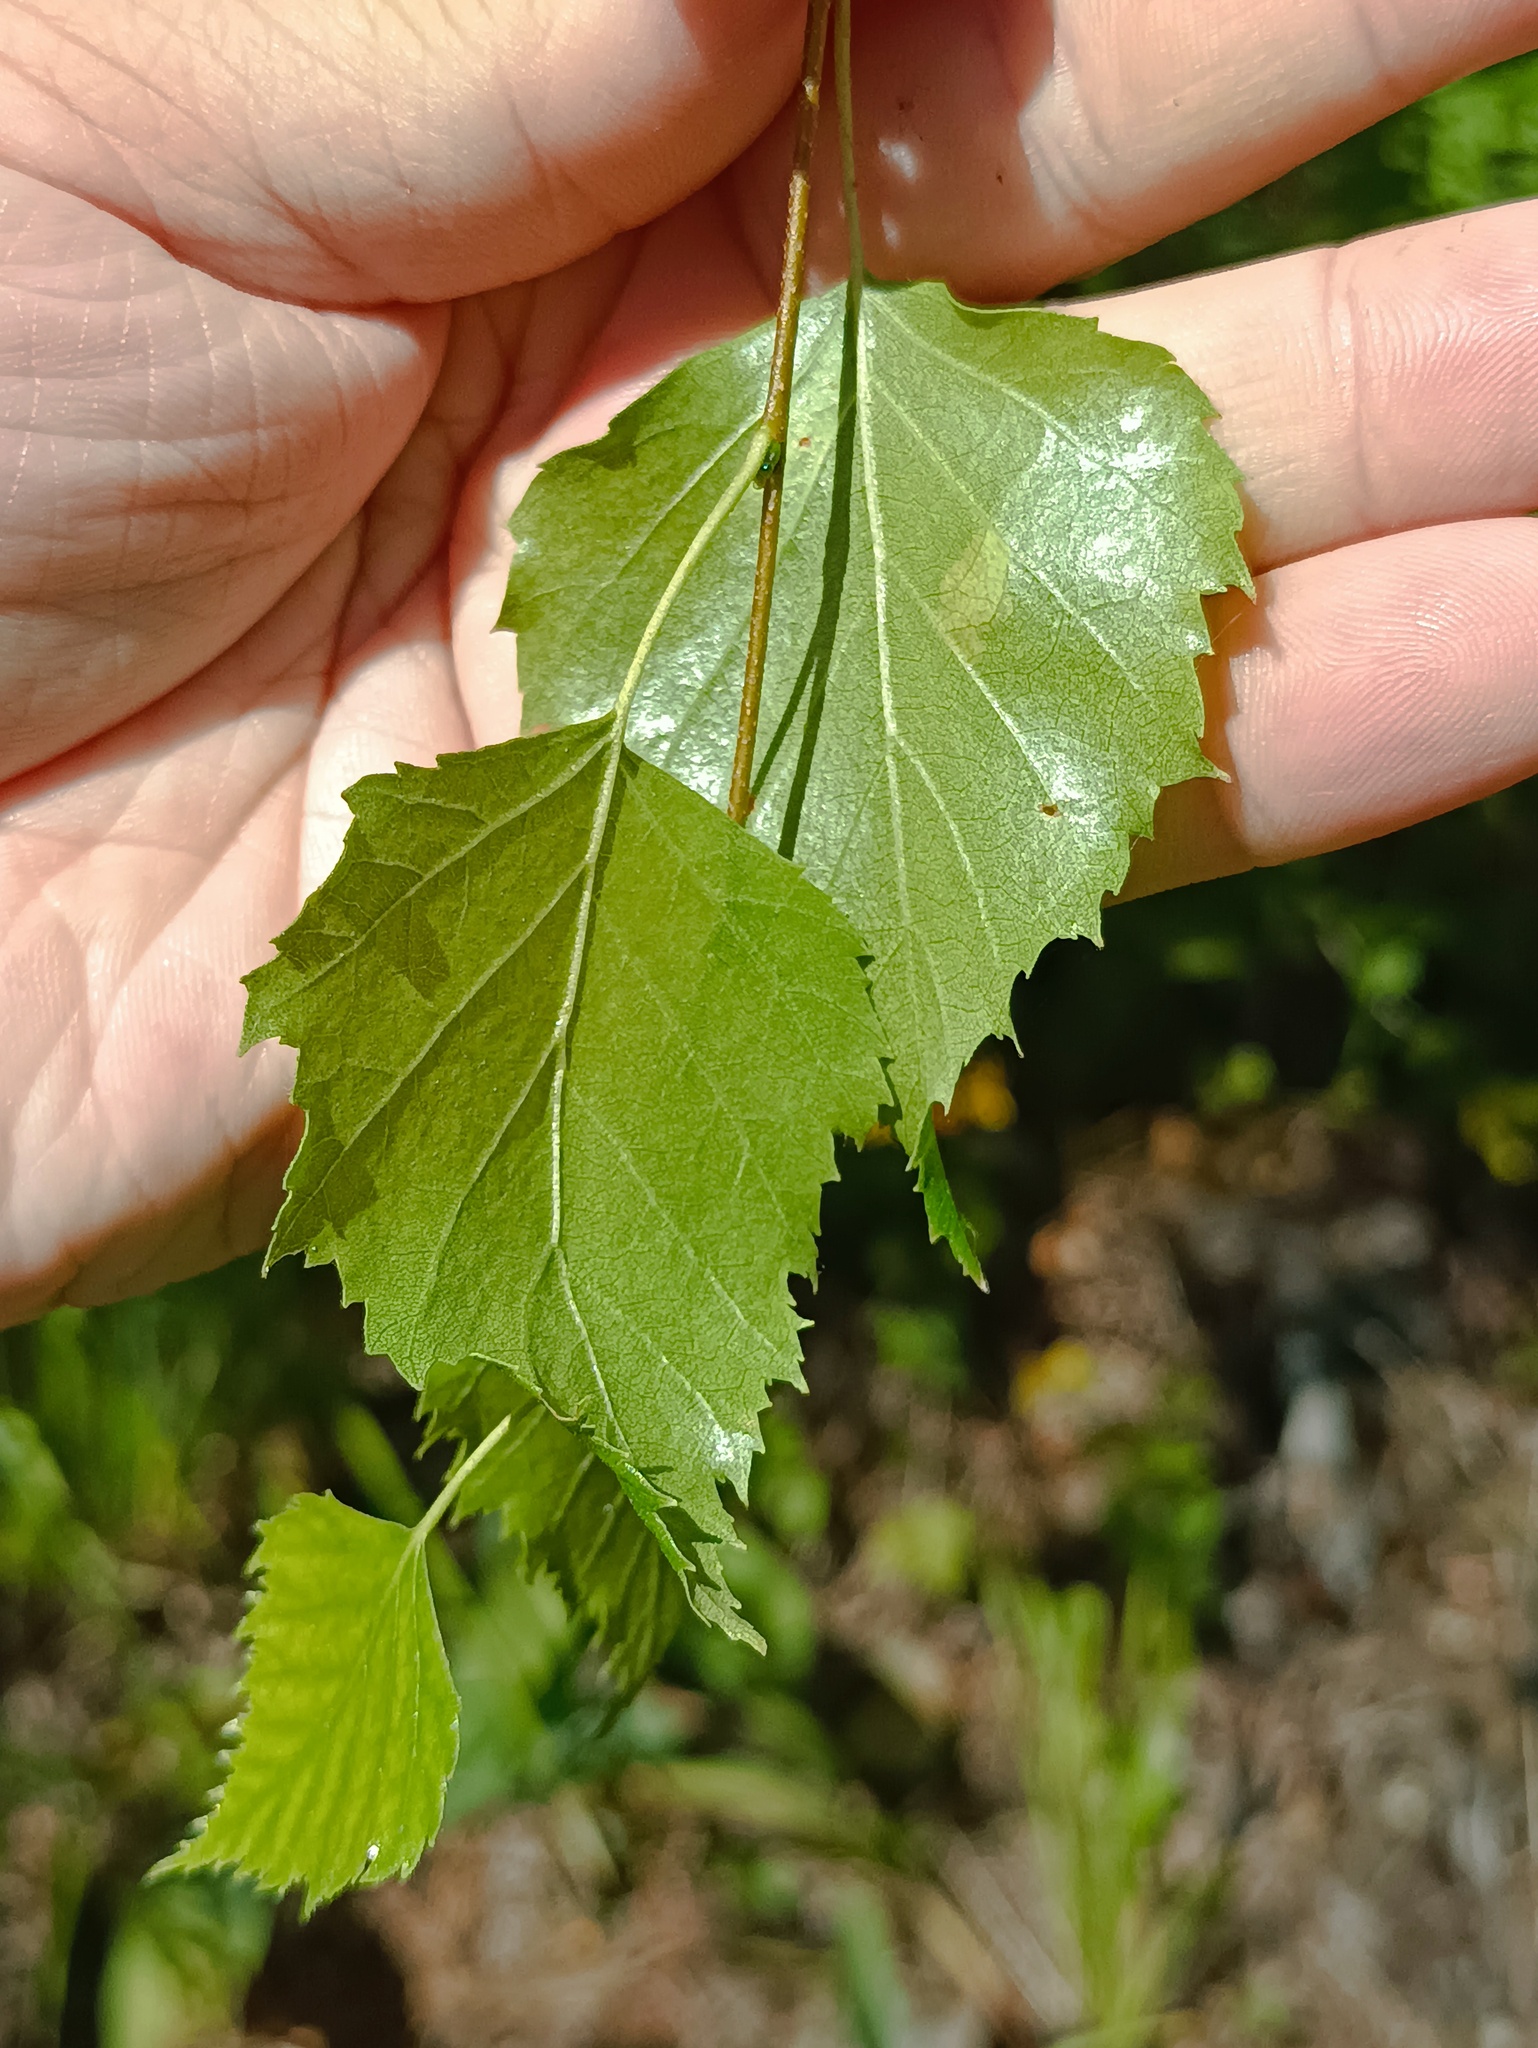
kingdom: Plantae
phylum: Tracheophyta
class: Magnoliopsida
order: Fagales
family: Betulaceae
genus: Betula
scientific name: Betula pendula
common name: Silver birch
